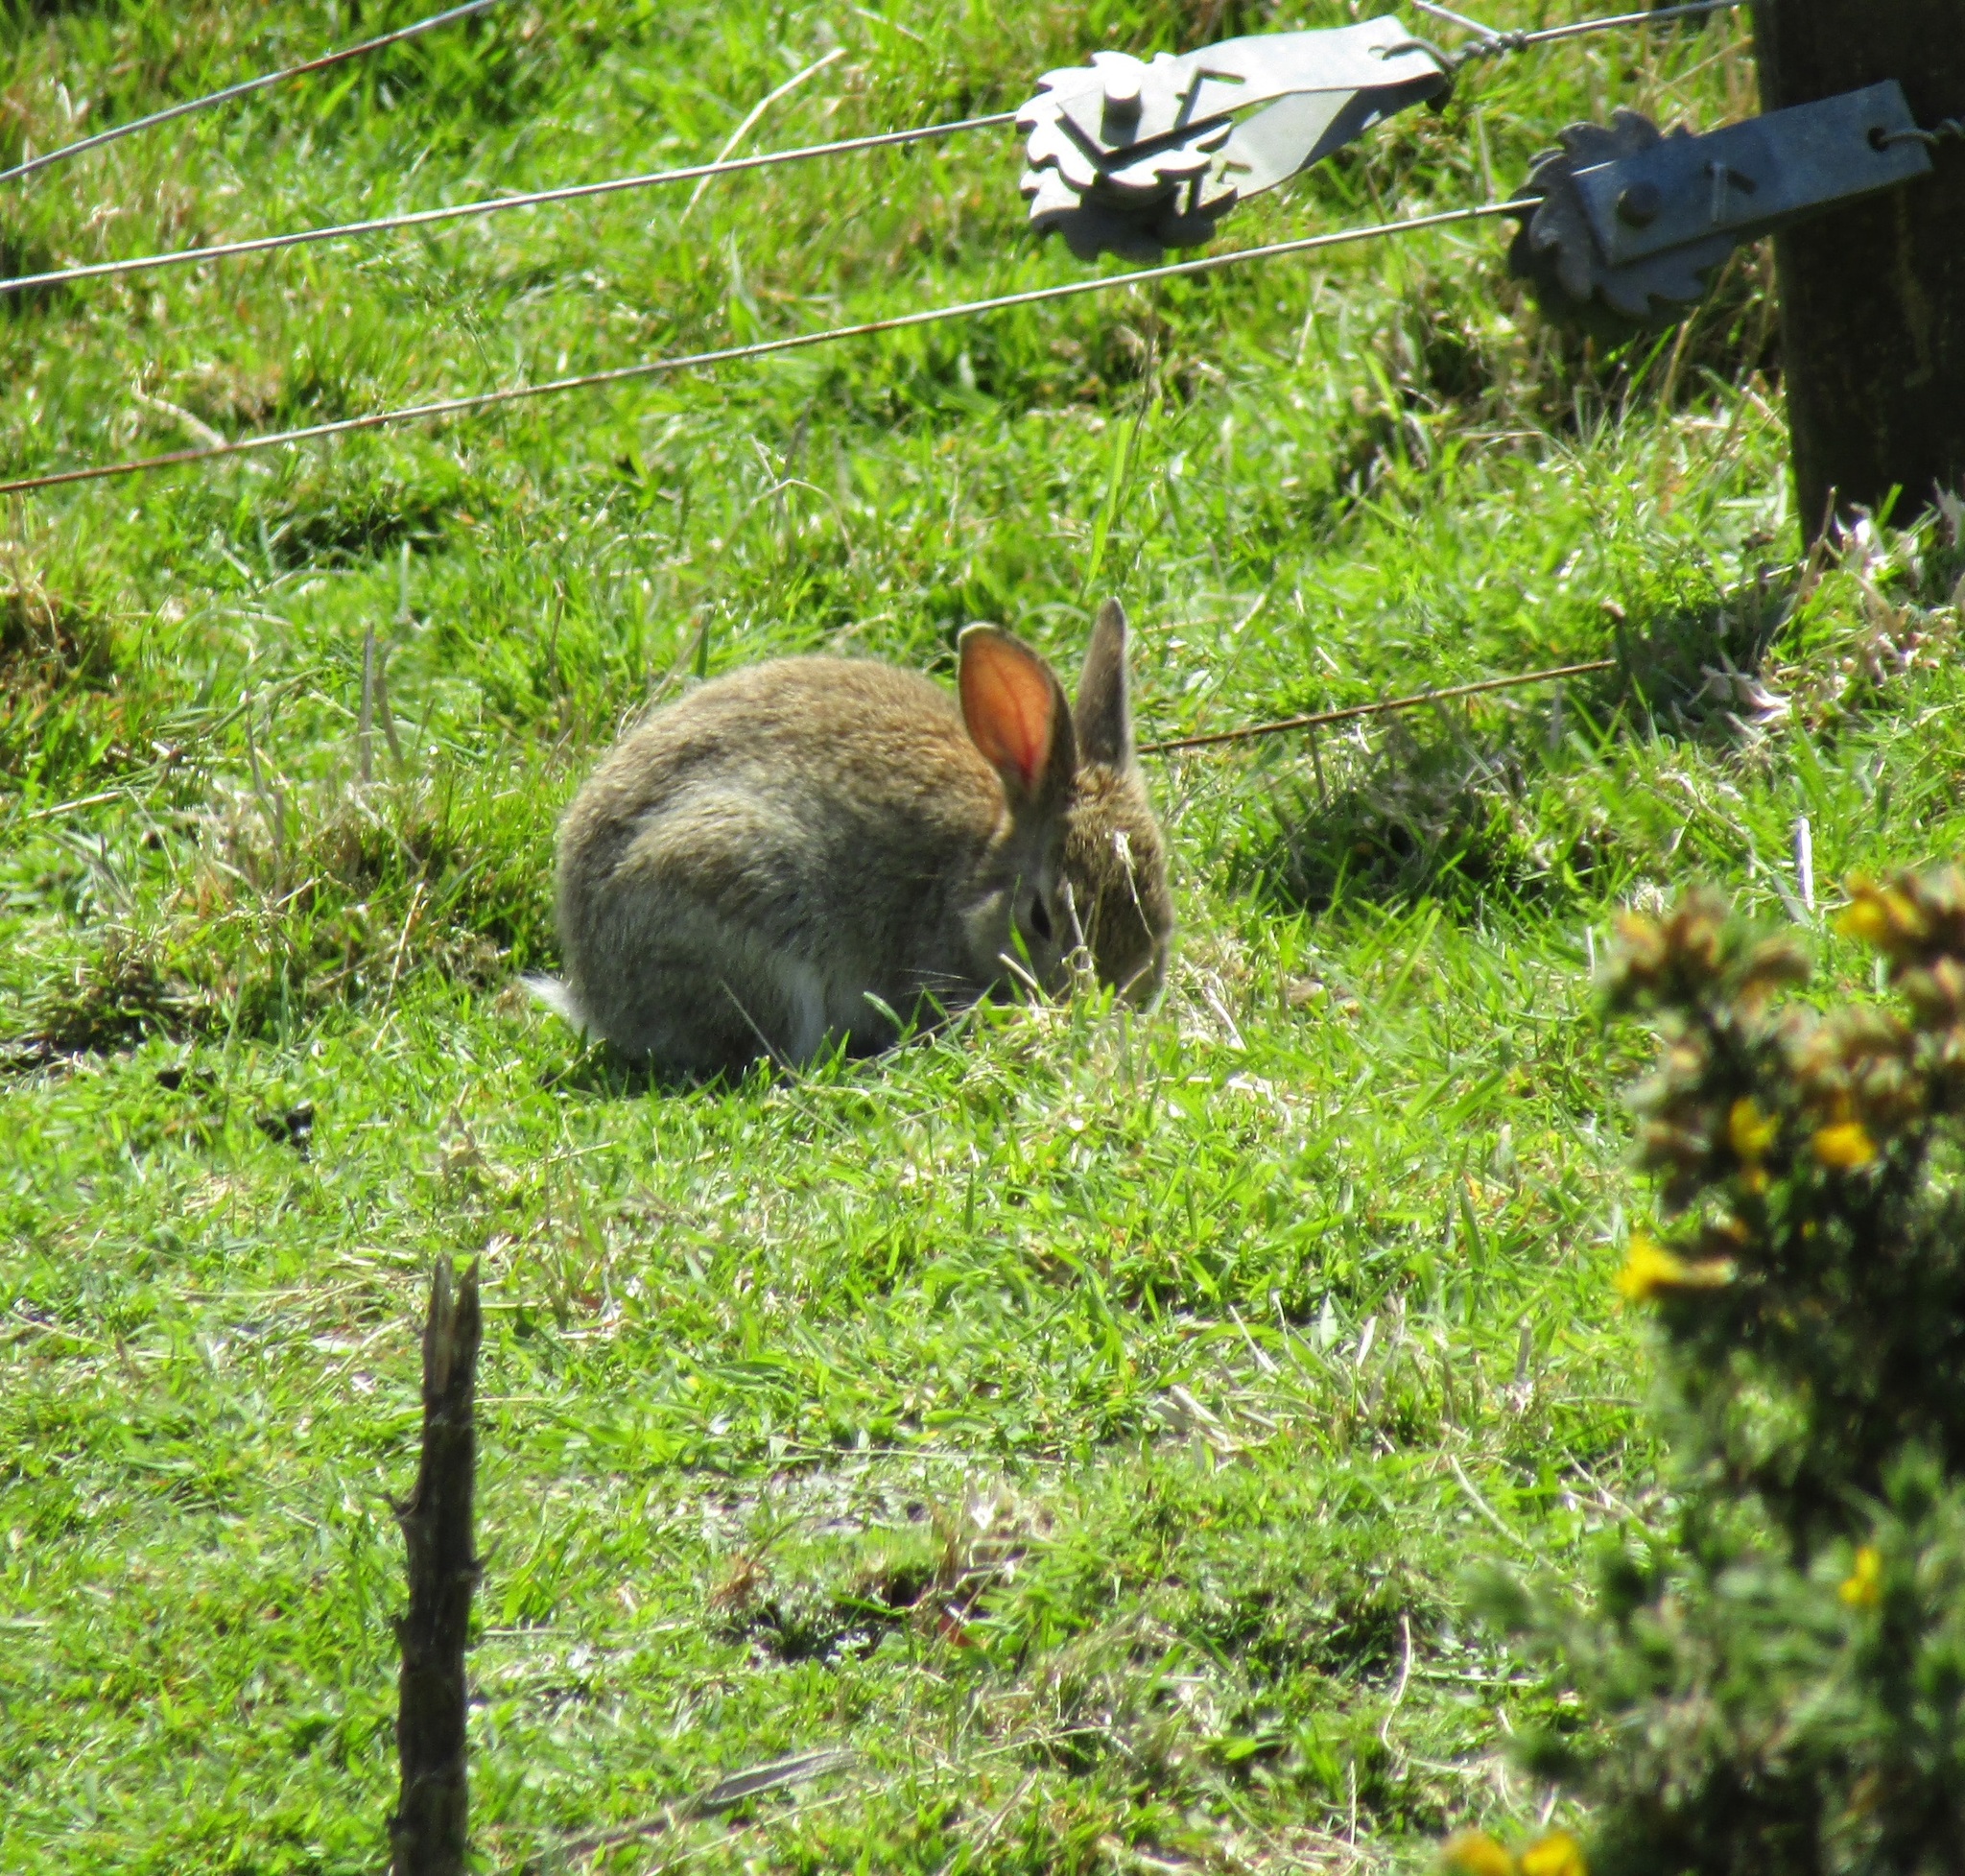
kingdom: Animalia
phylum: Chordata
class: Mammalia
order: Lagomorpha
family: Leporidae
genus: Oryctolagus
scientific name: Oryctolagus cuniculus
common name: European rabbit
